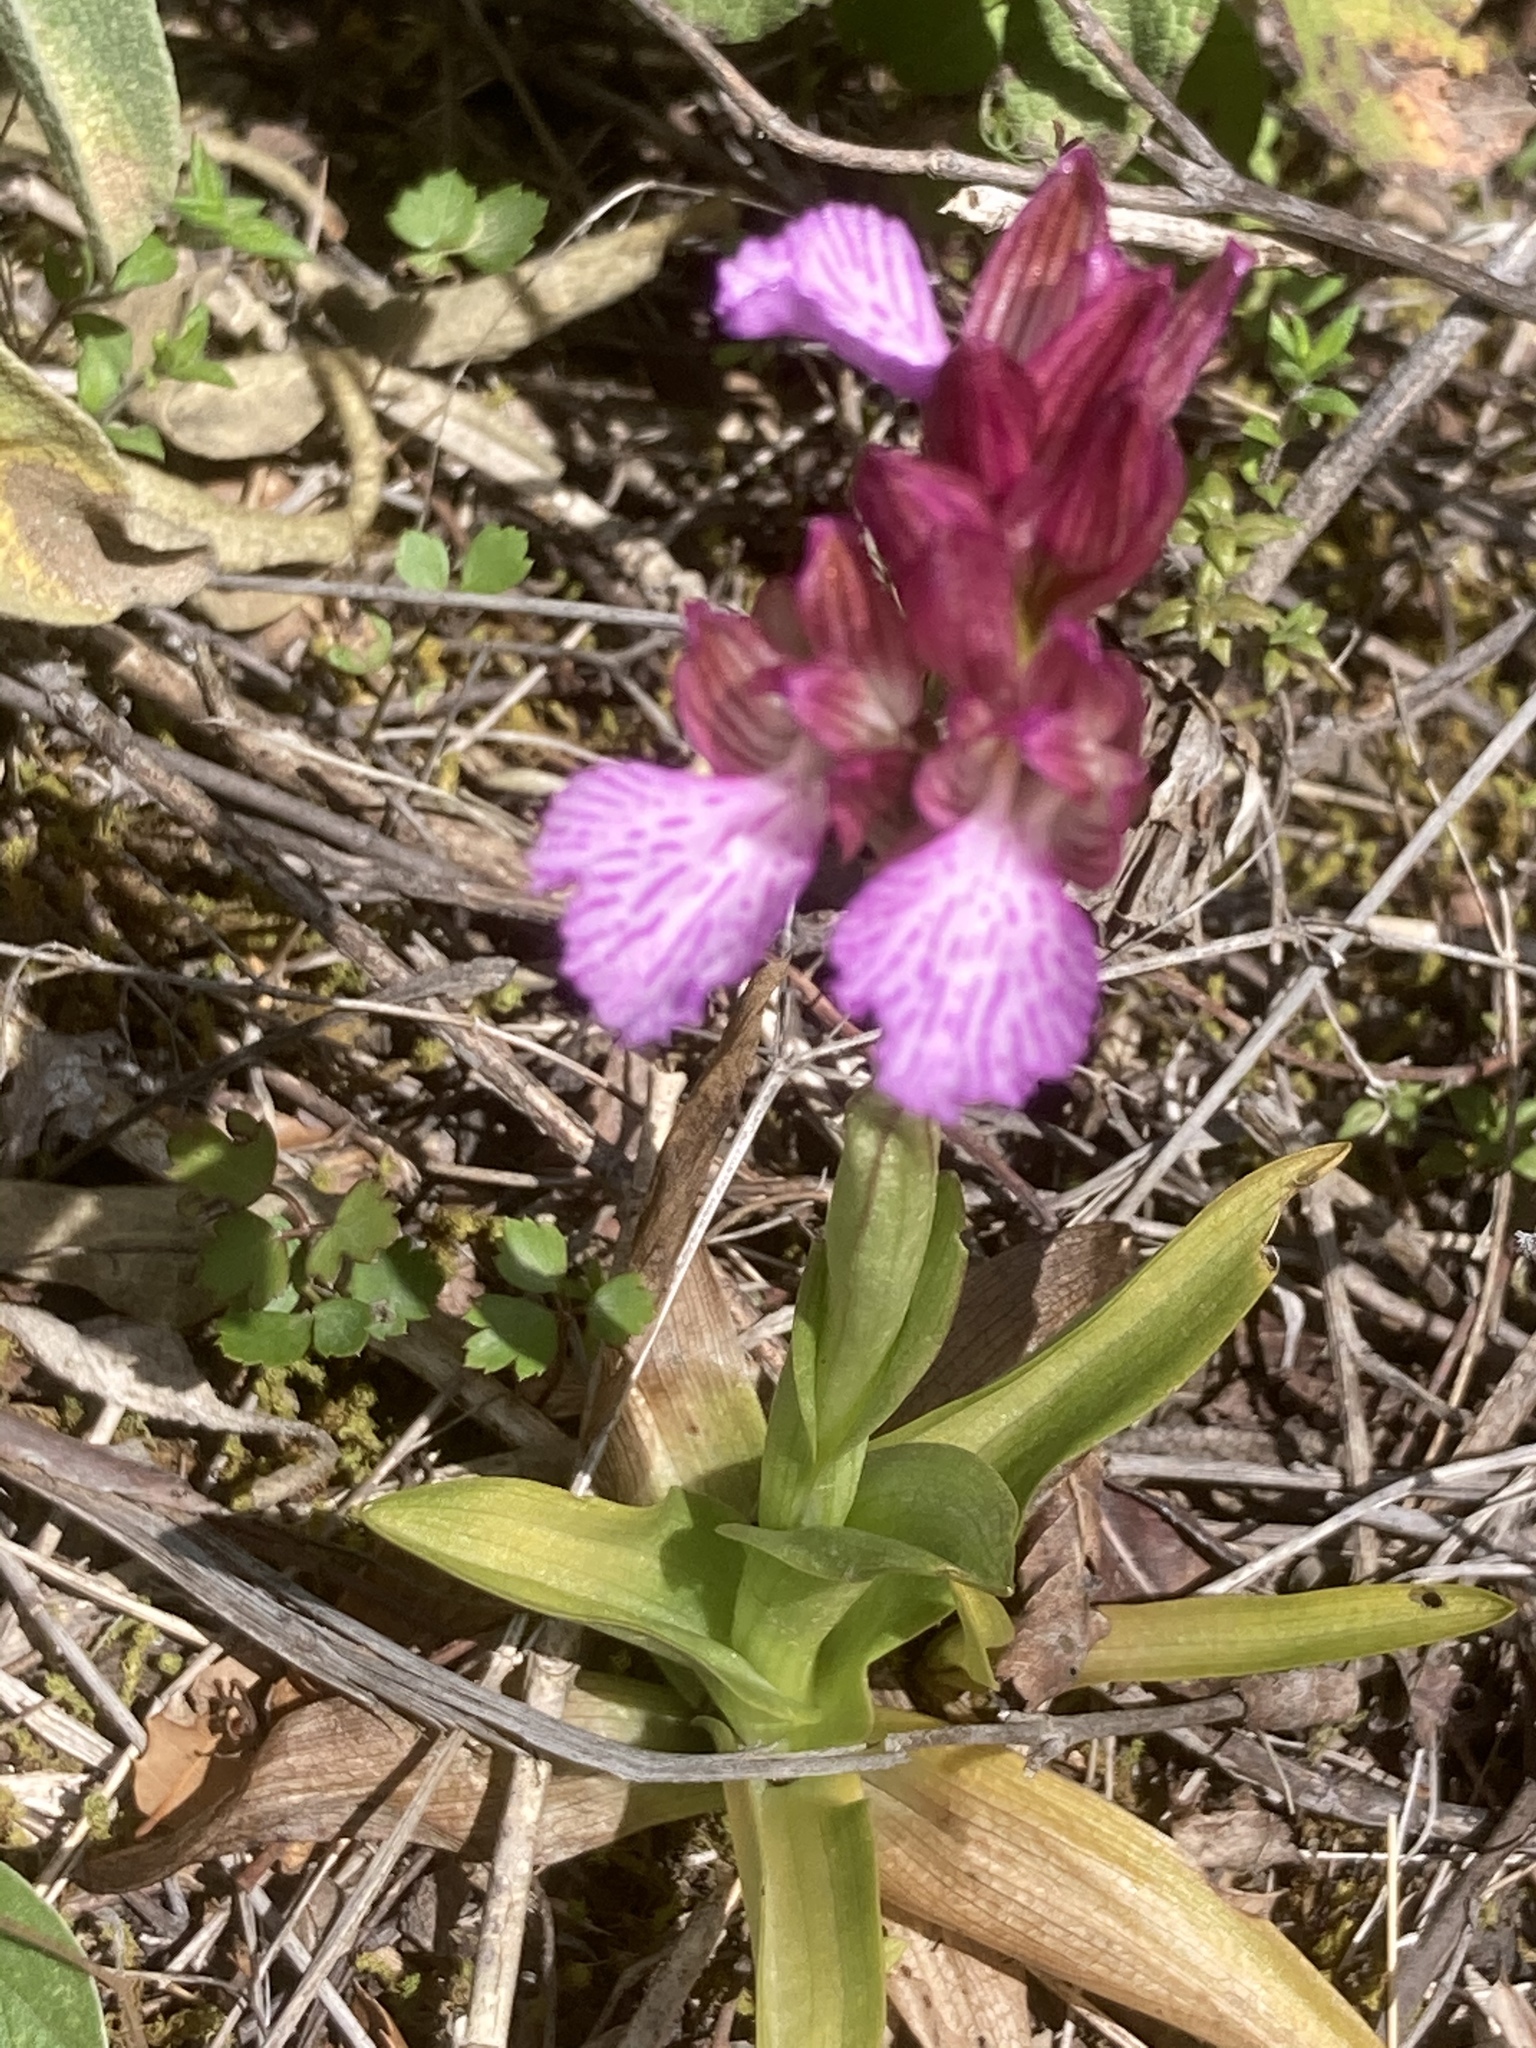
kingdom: Plantae
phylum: Tracheophyta
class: Liliopsida
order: Asparagales
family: Orchidaceae
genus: Anacamptis
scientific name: Anacamptis papilionacea
